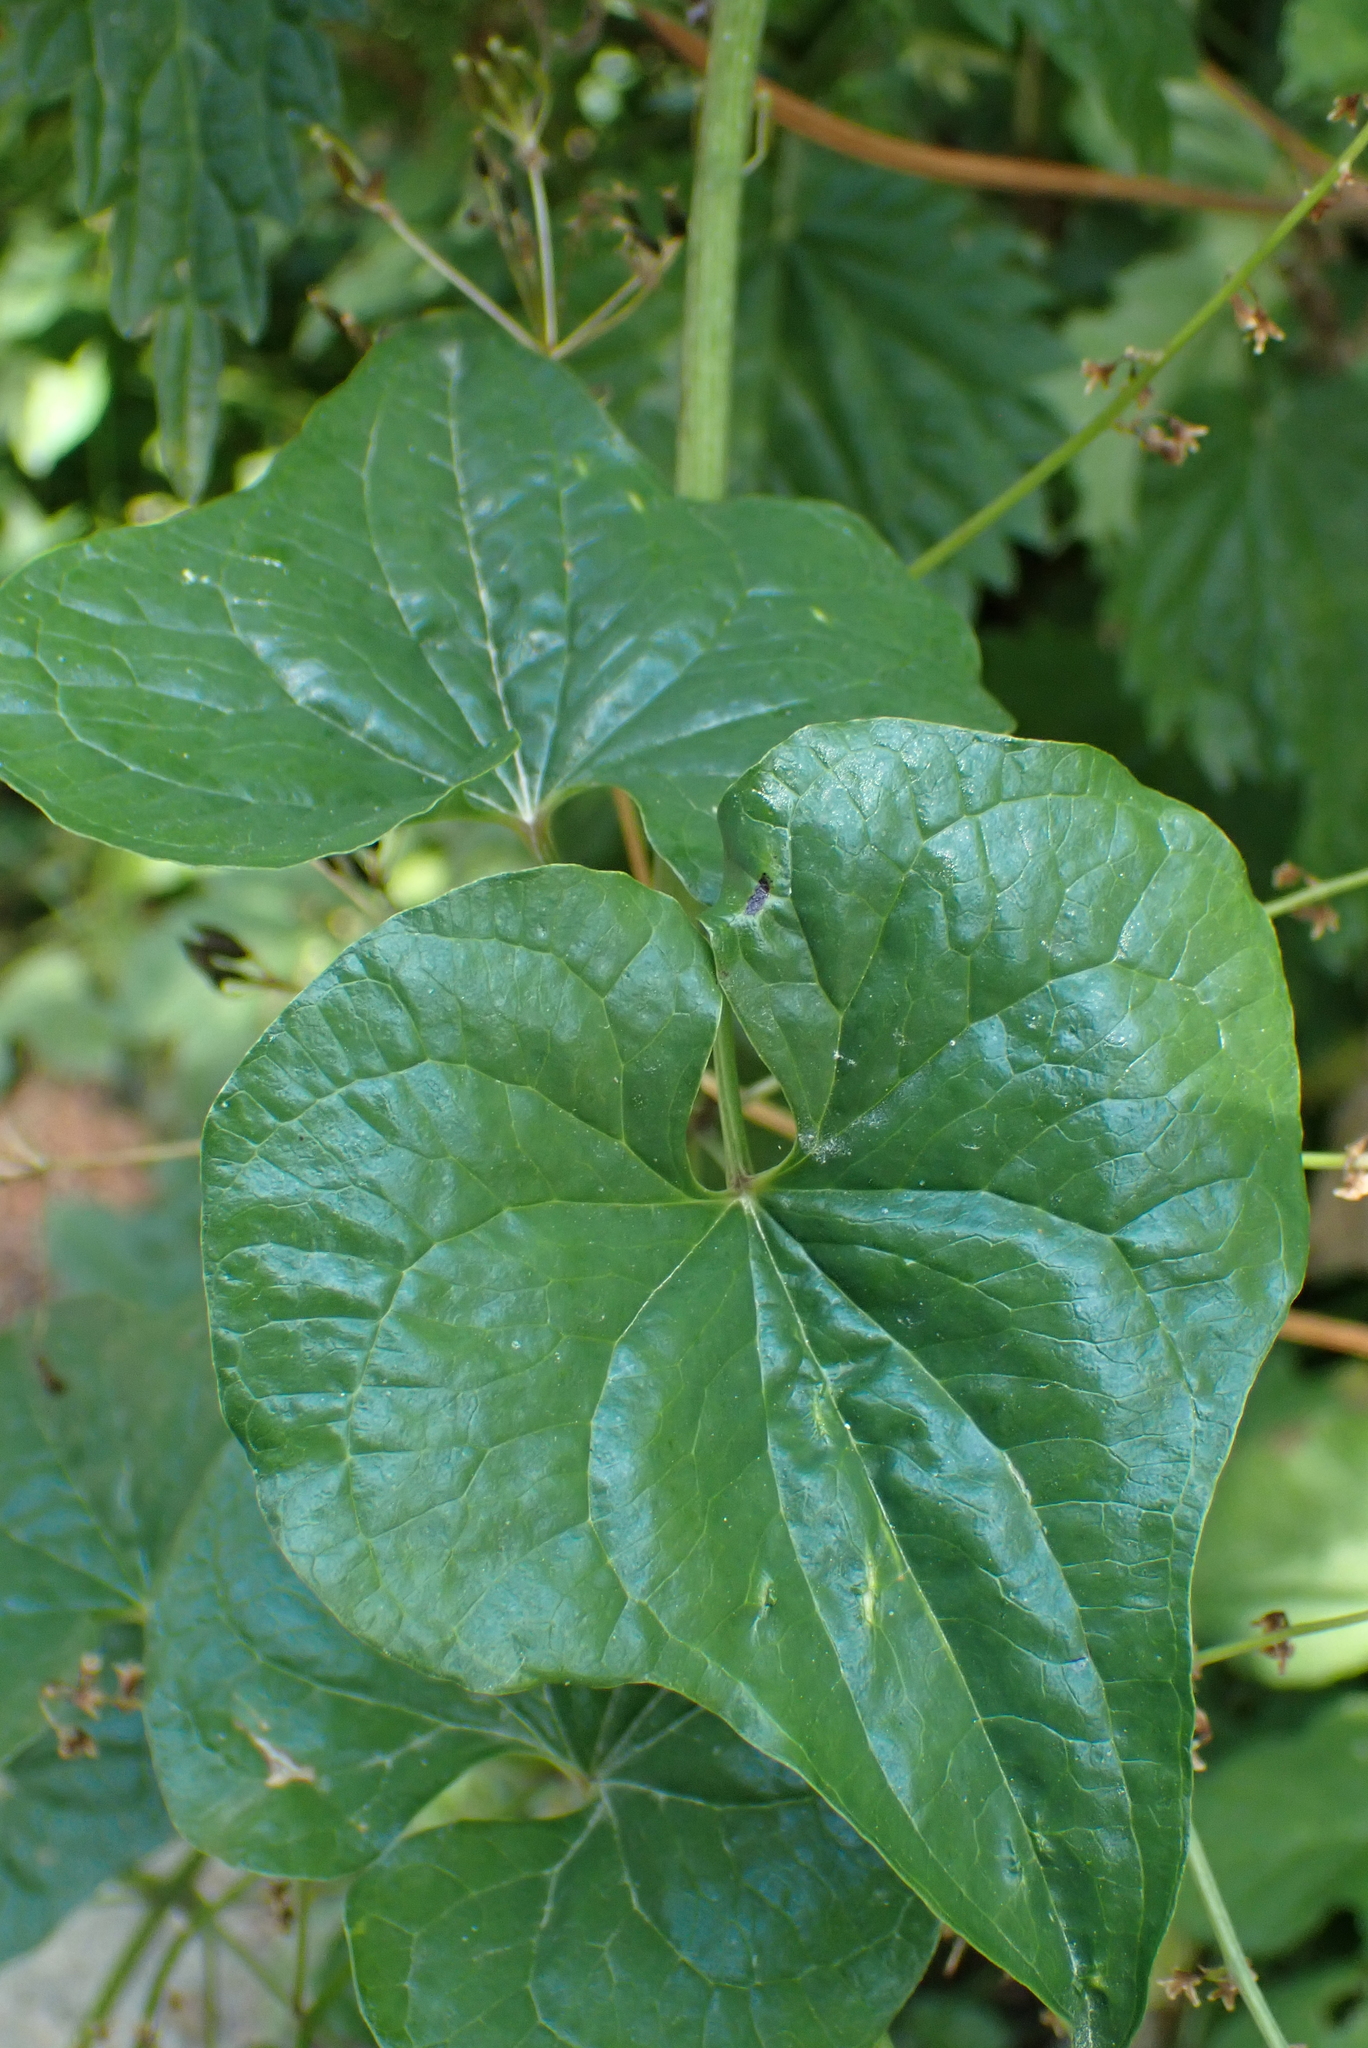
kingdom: Plantae
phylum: Tracheophyta
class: Liliopsida
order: Dioscoreales
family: Dioscoreaceae
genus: Dioscorea
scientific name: Dioscorea communis
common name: Black-bindweed
